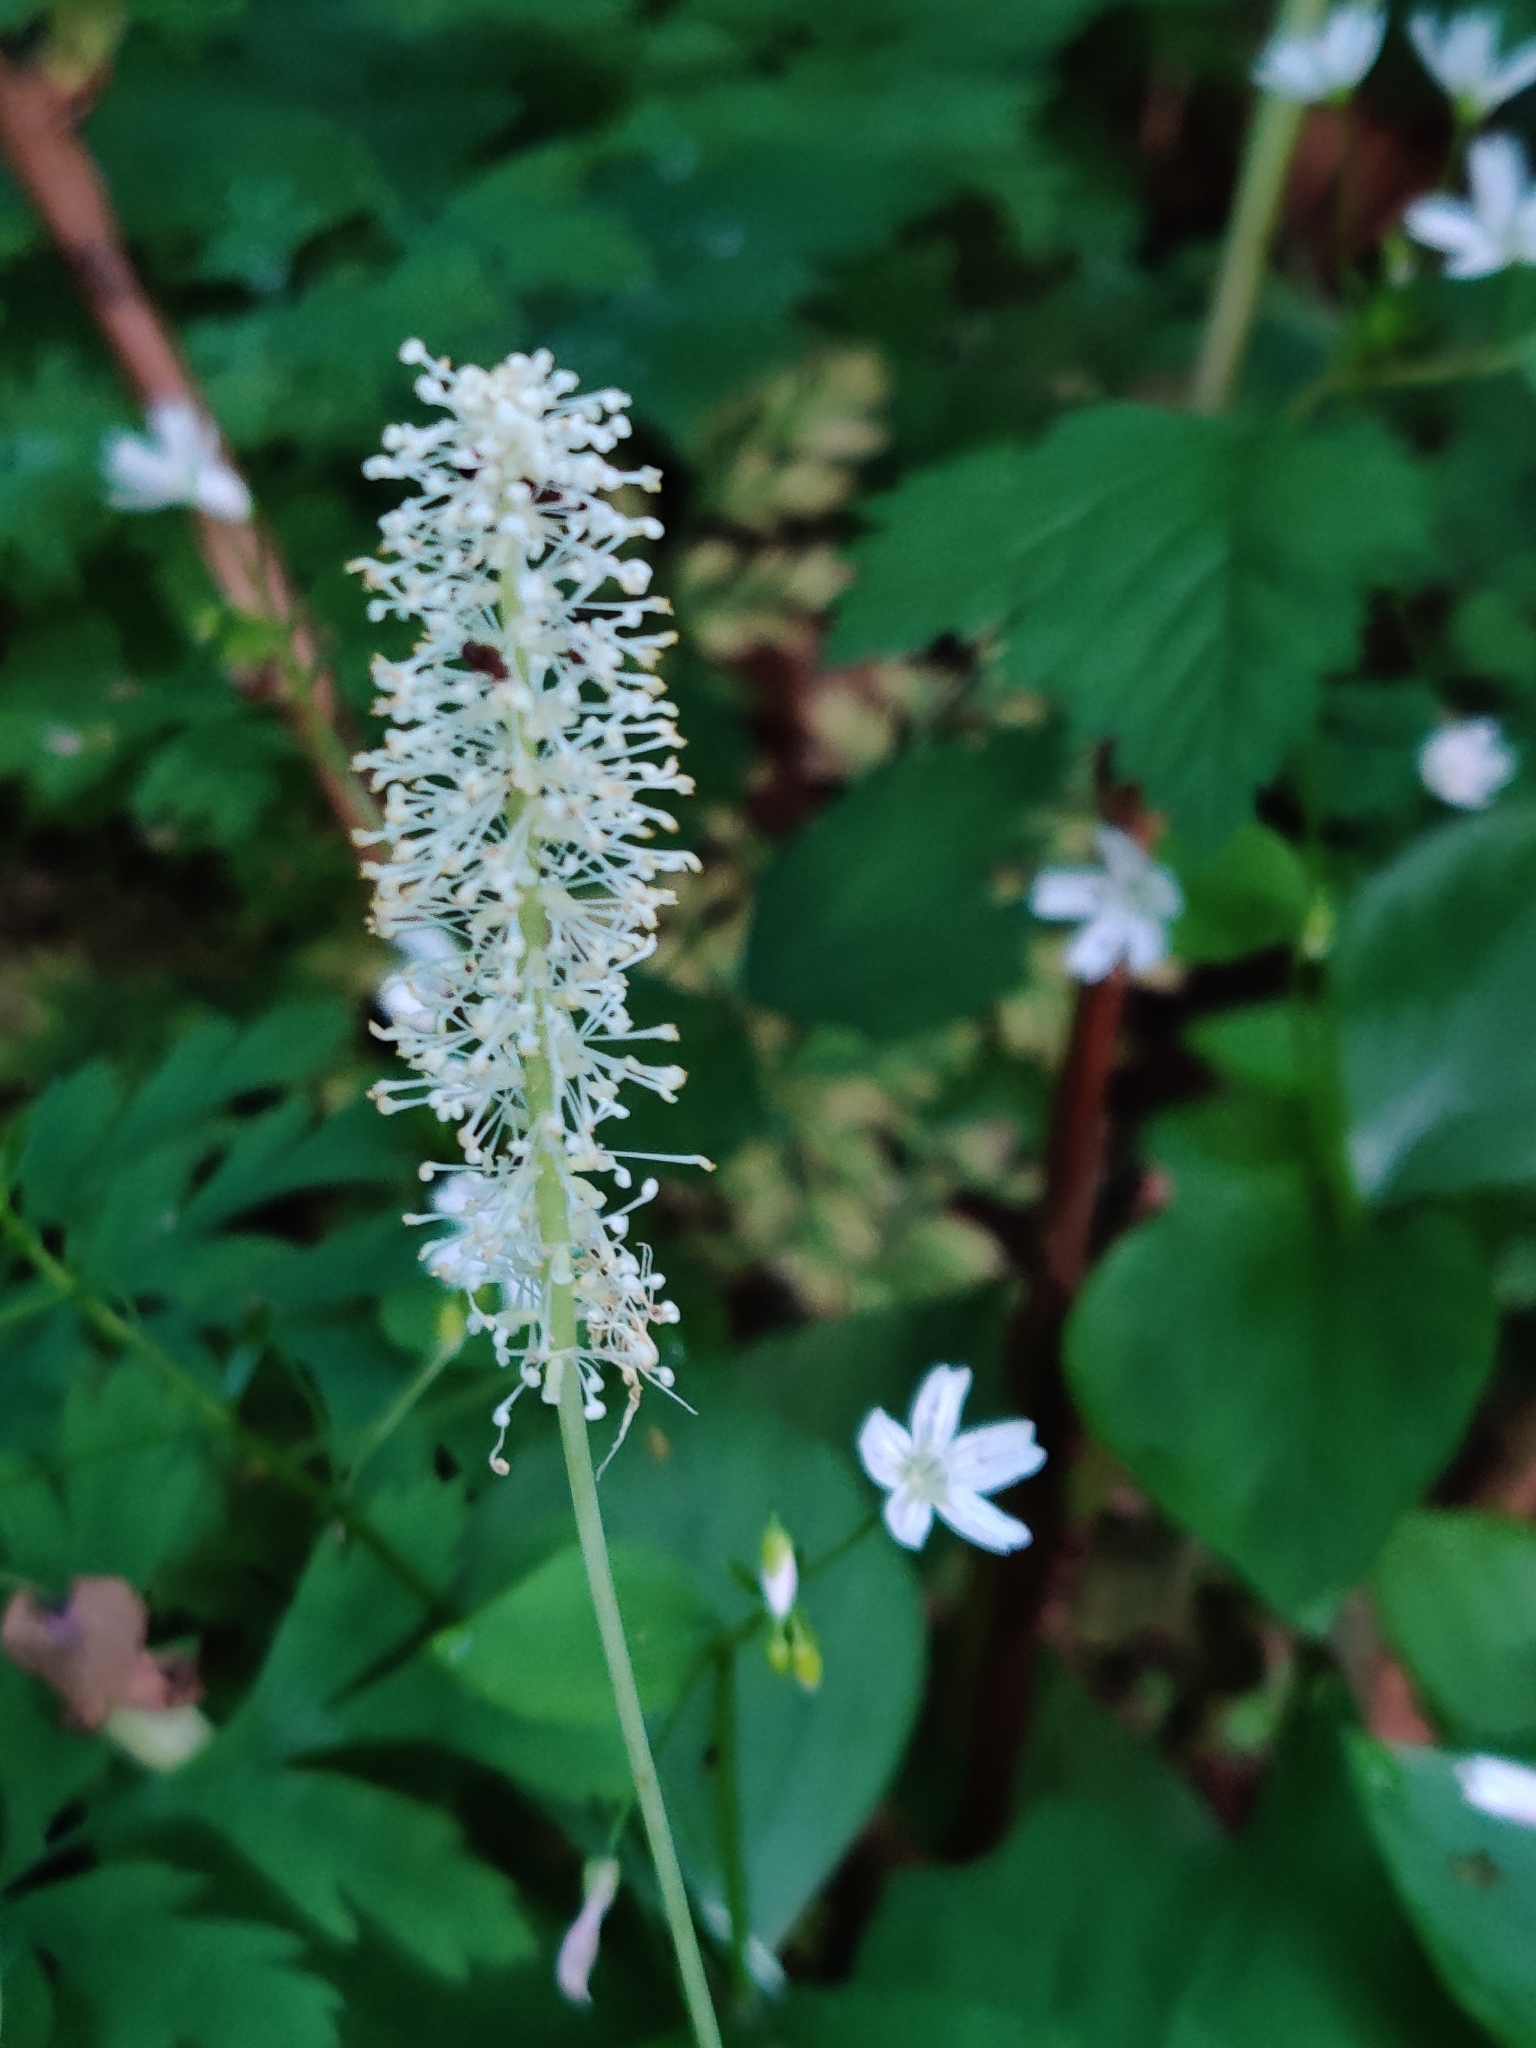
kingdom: Plantae
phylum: Tracheophyta
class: Magnoliopsida
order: Ranunculales
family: Berberidaceae
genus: Achlys
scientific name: Achlys triphylla
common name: Vanilla-leaf
